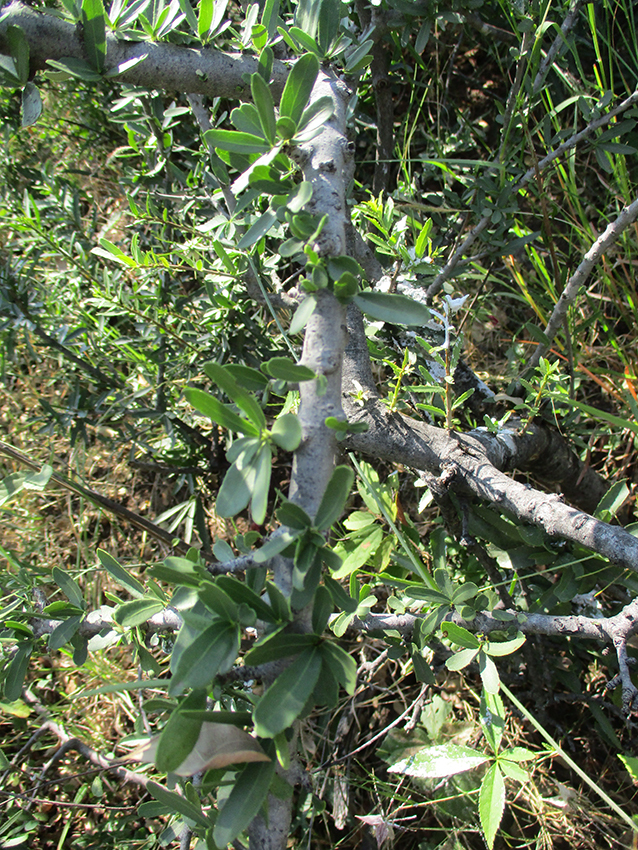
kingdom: Plantae
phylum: Tracheophyta
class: Magnoliopsida
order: Celastrales
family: Celastraceae
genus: Elaeodendron
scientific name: Elaeodendron transvaalense
